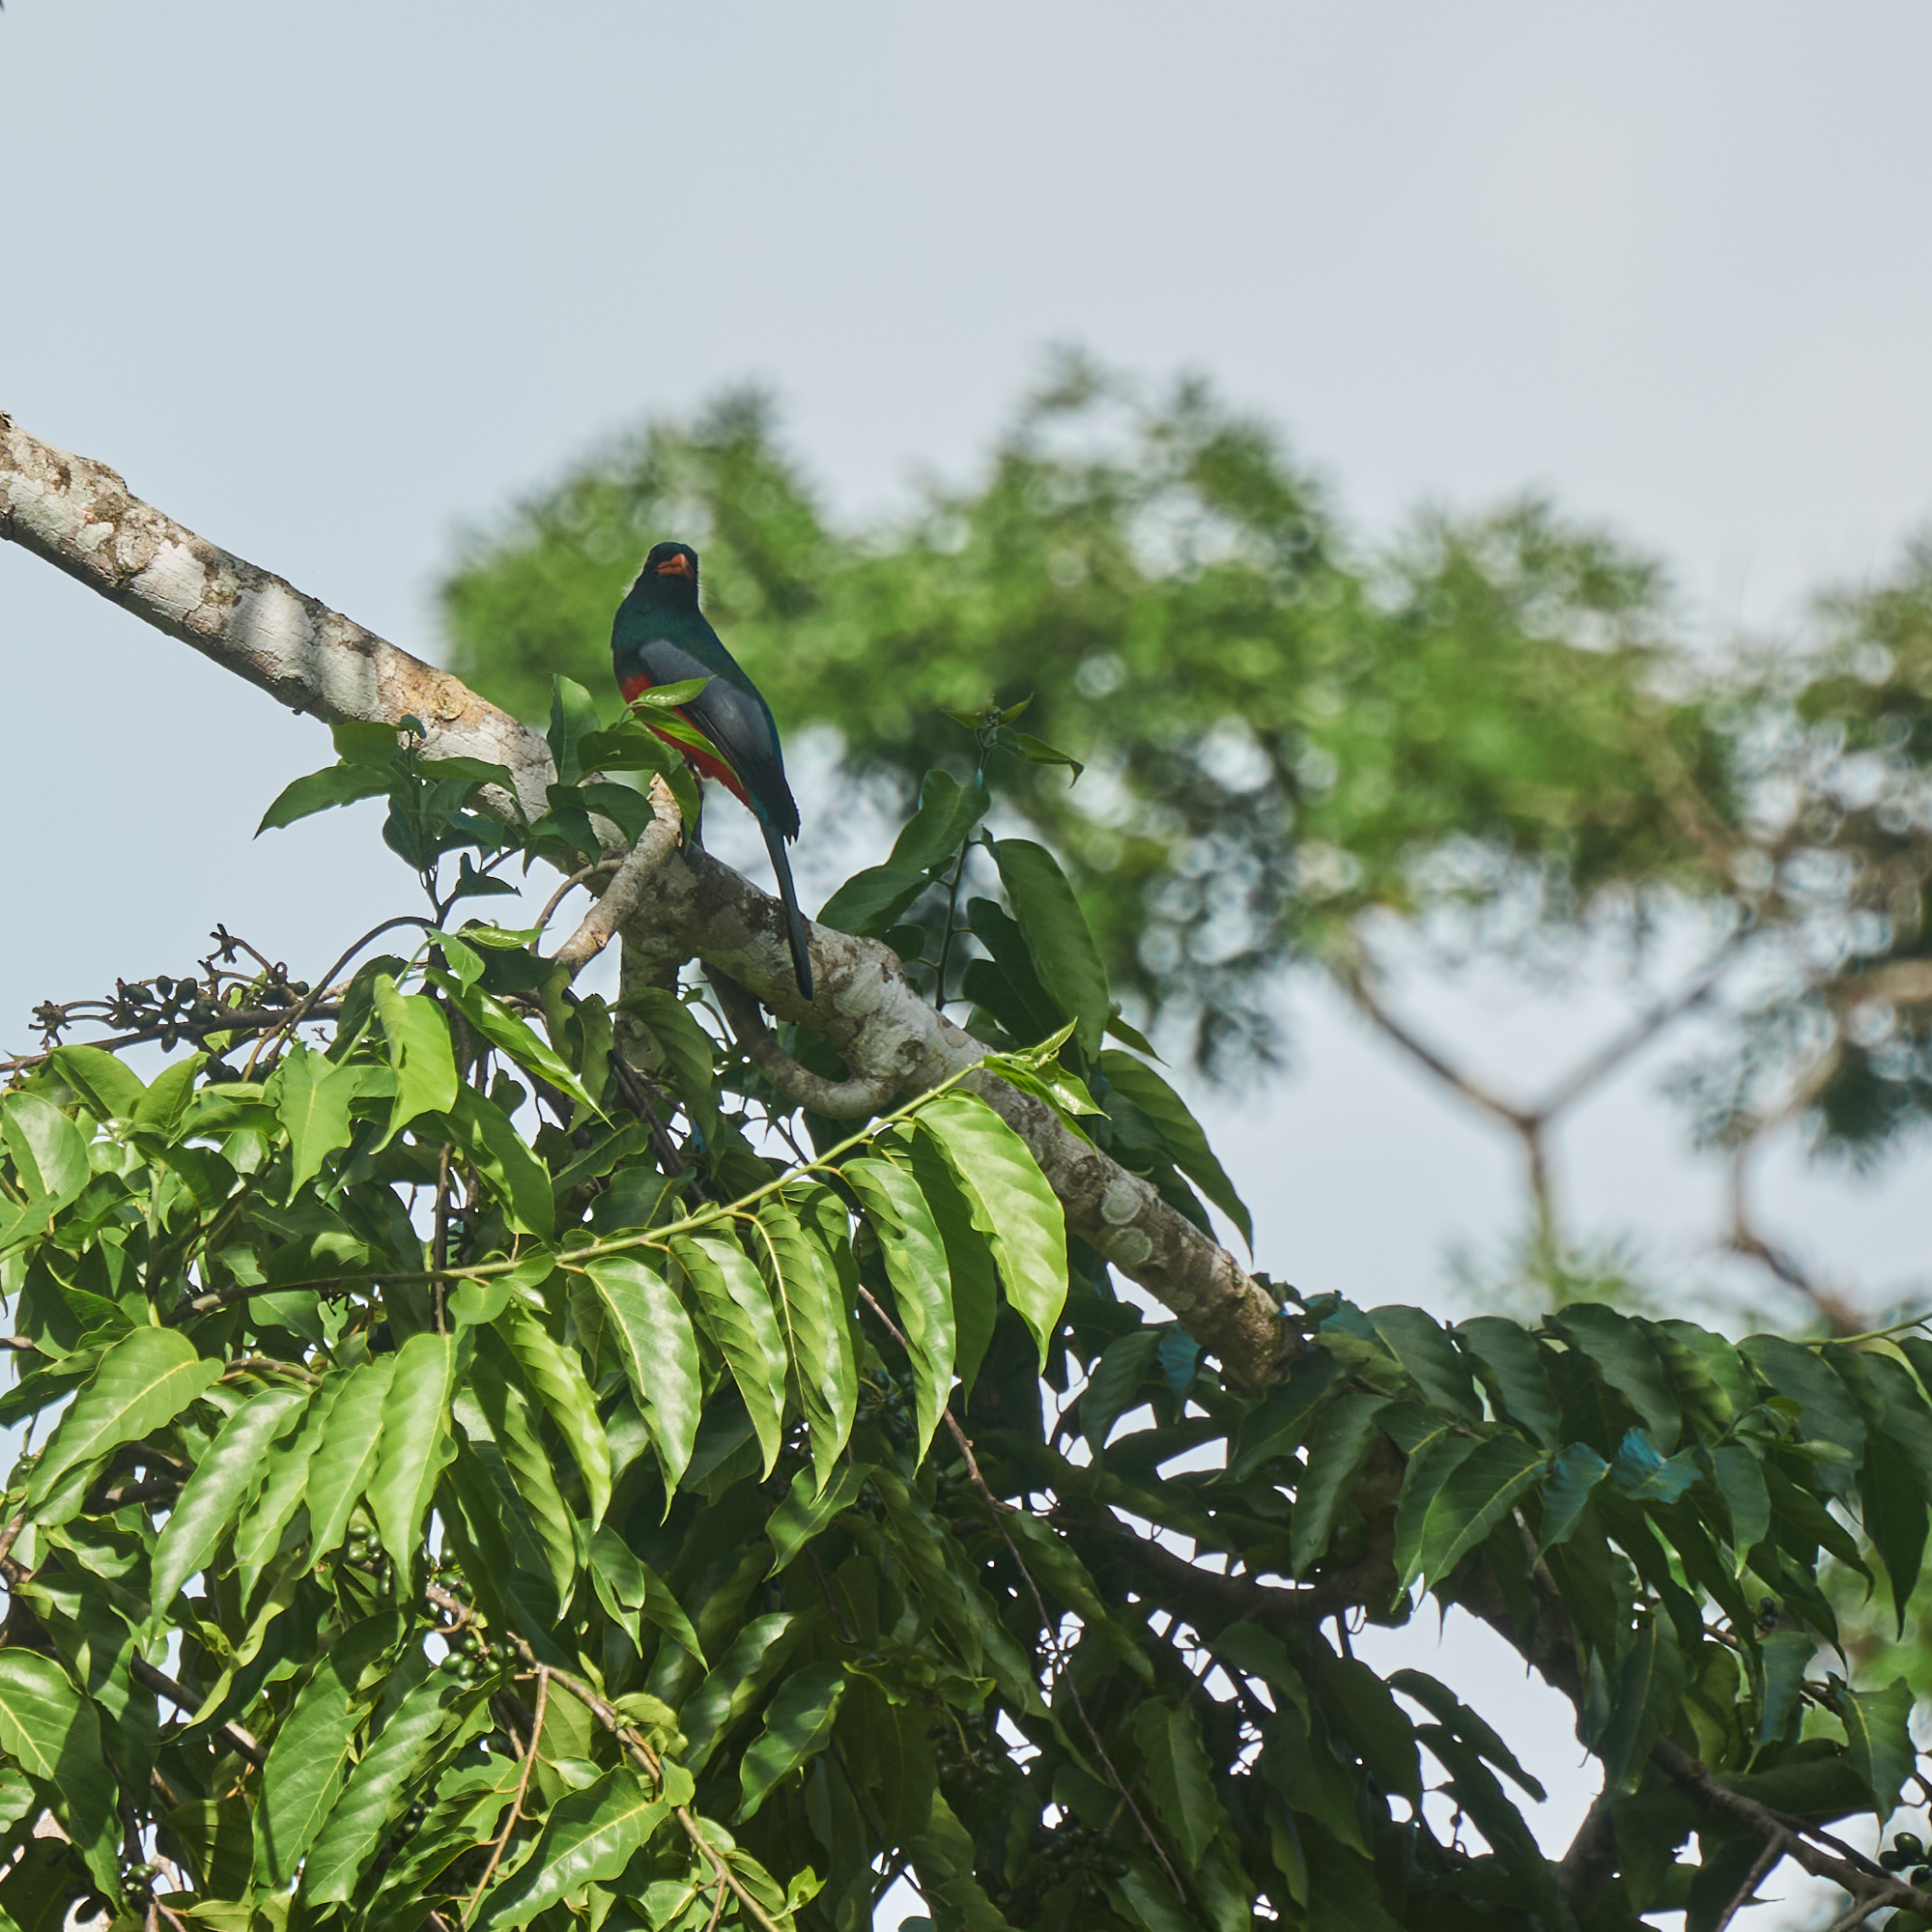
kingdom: Animalia
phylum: Chordata
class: Aves
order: Trogoniformes
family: Trogonidae
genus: Trogon
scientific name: Trogon massena
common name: Slaty-tailed trogon
